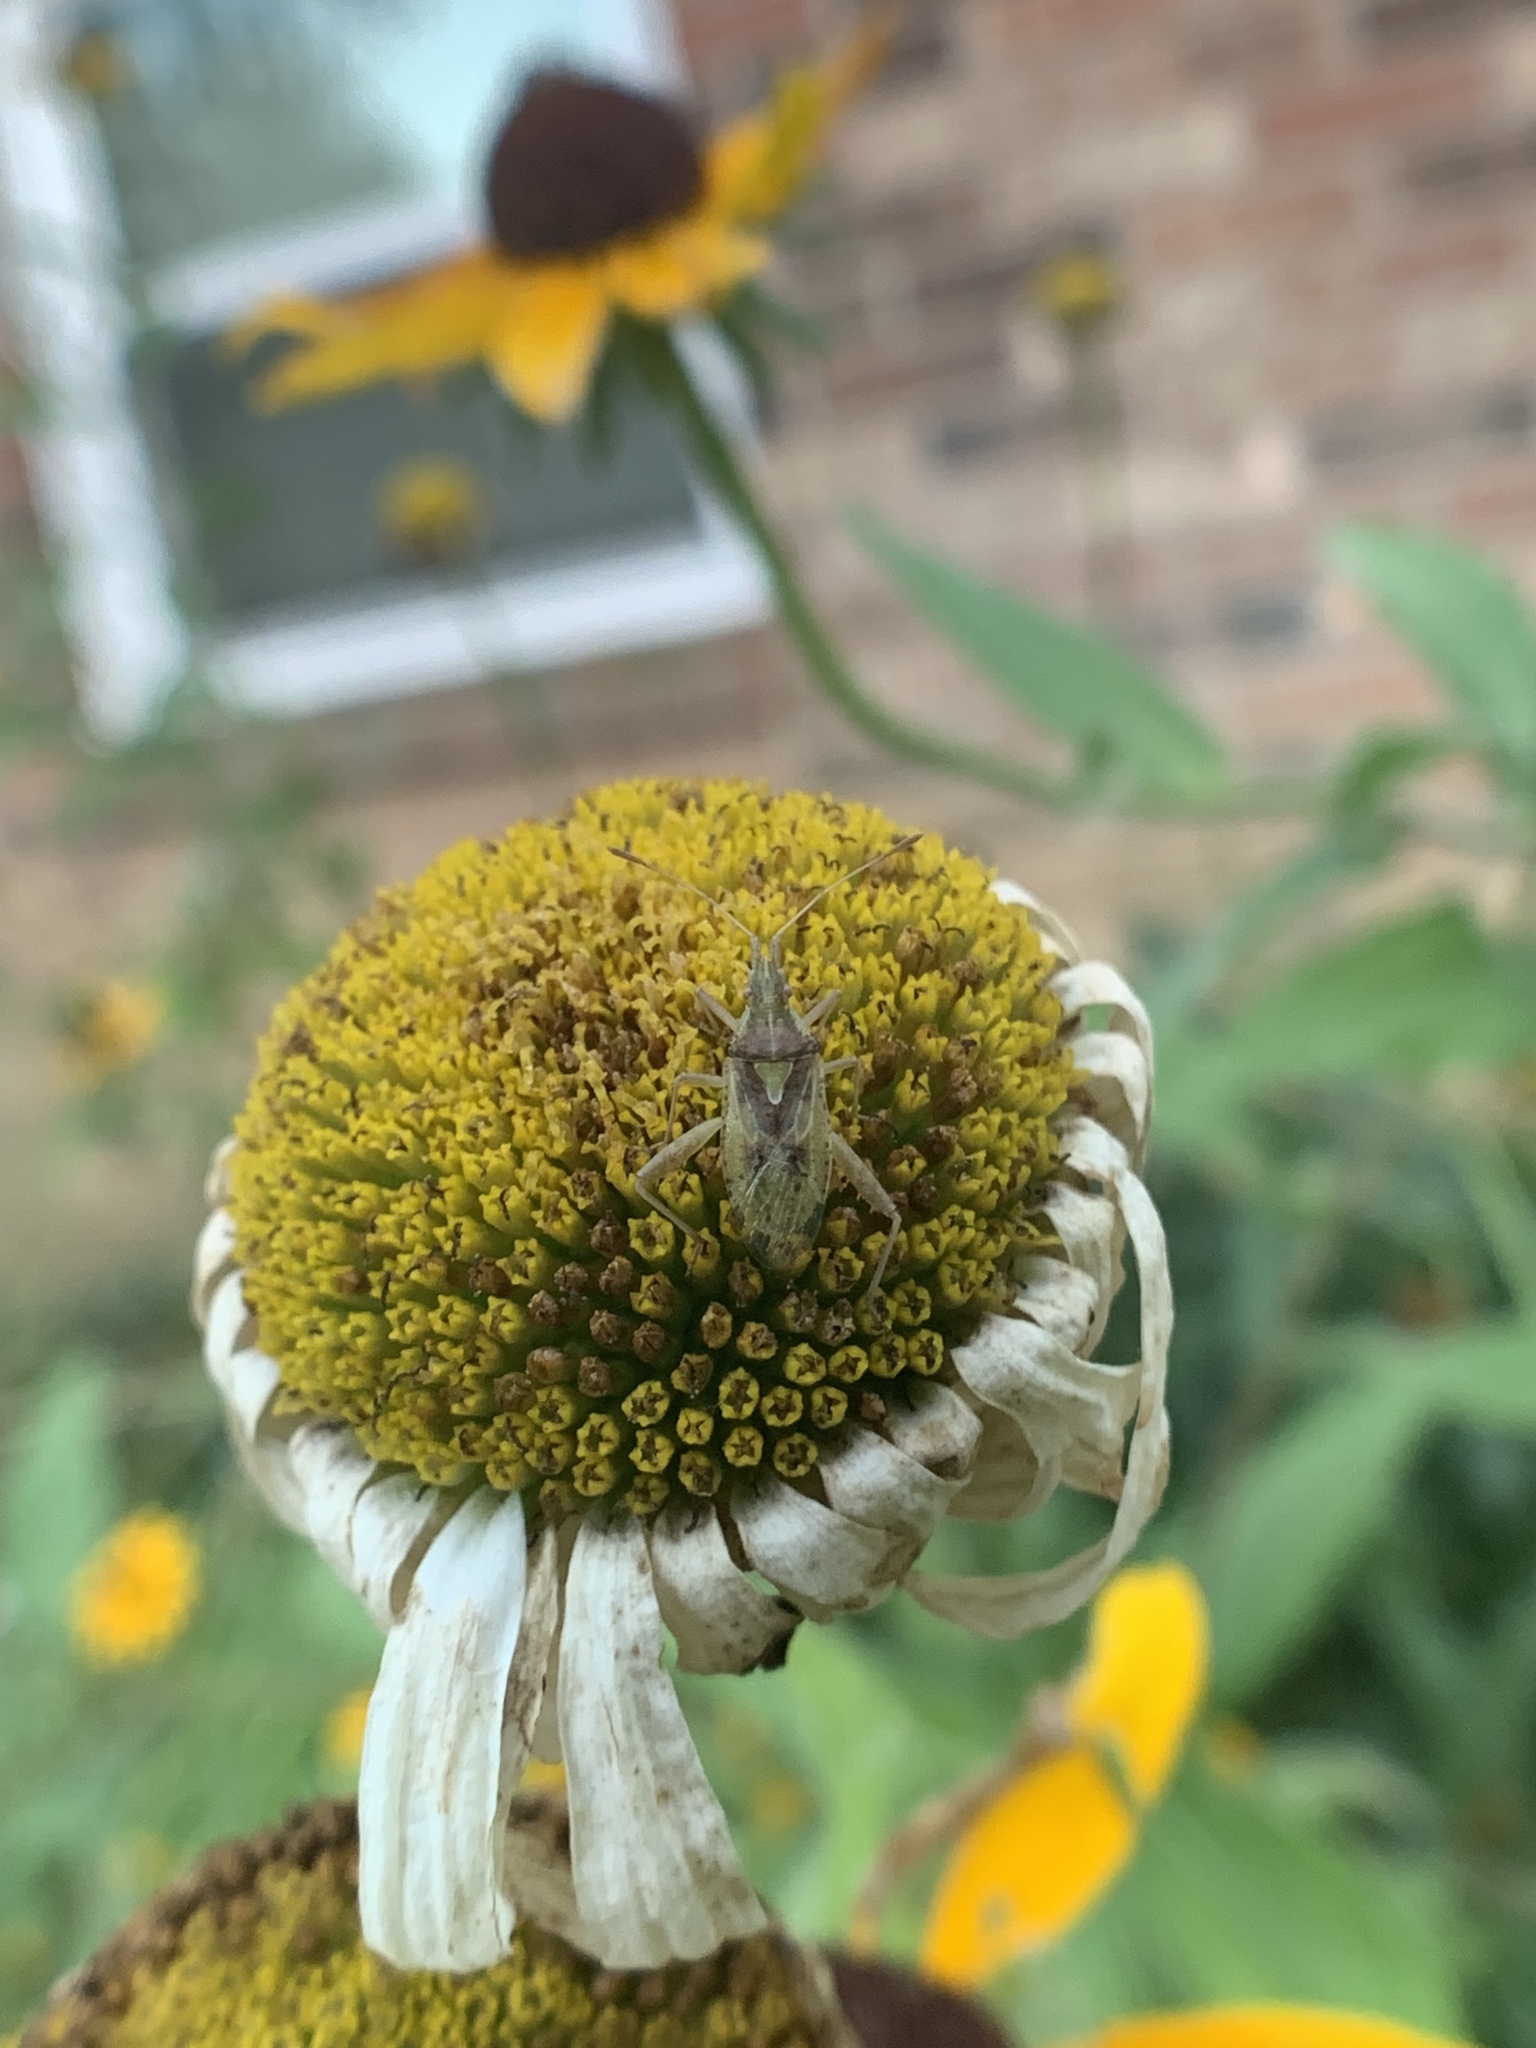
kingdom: Animalia
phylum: Arthropoda
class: Insecta
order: Hemiptera
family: Rhopalidae
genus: Harmostes
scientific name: Harmostes reflexulus
